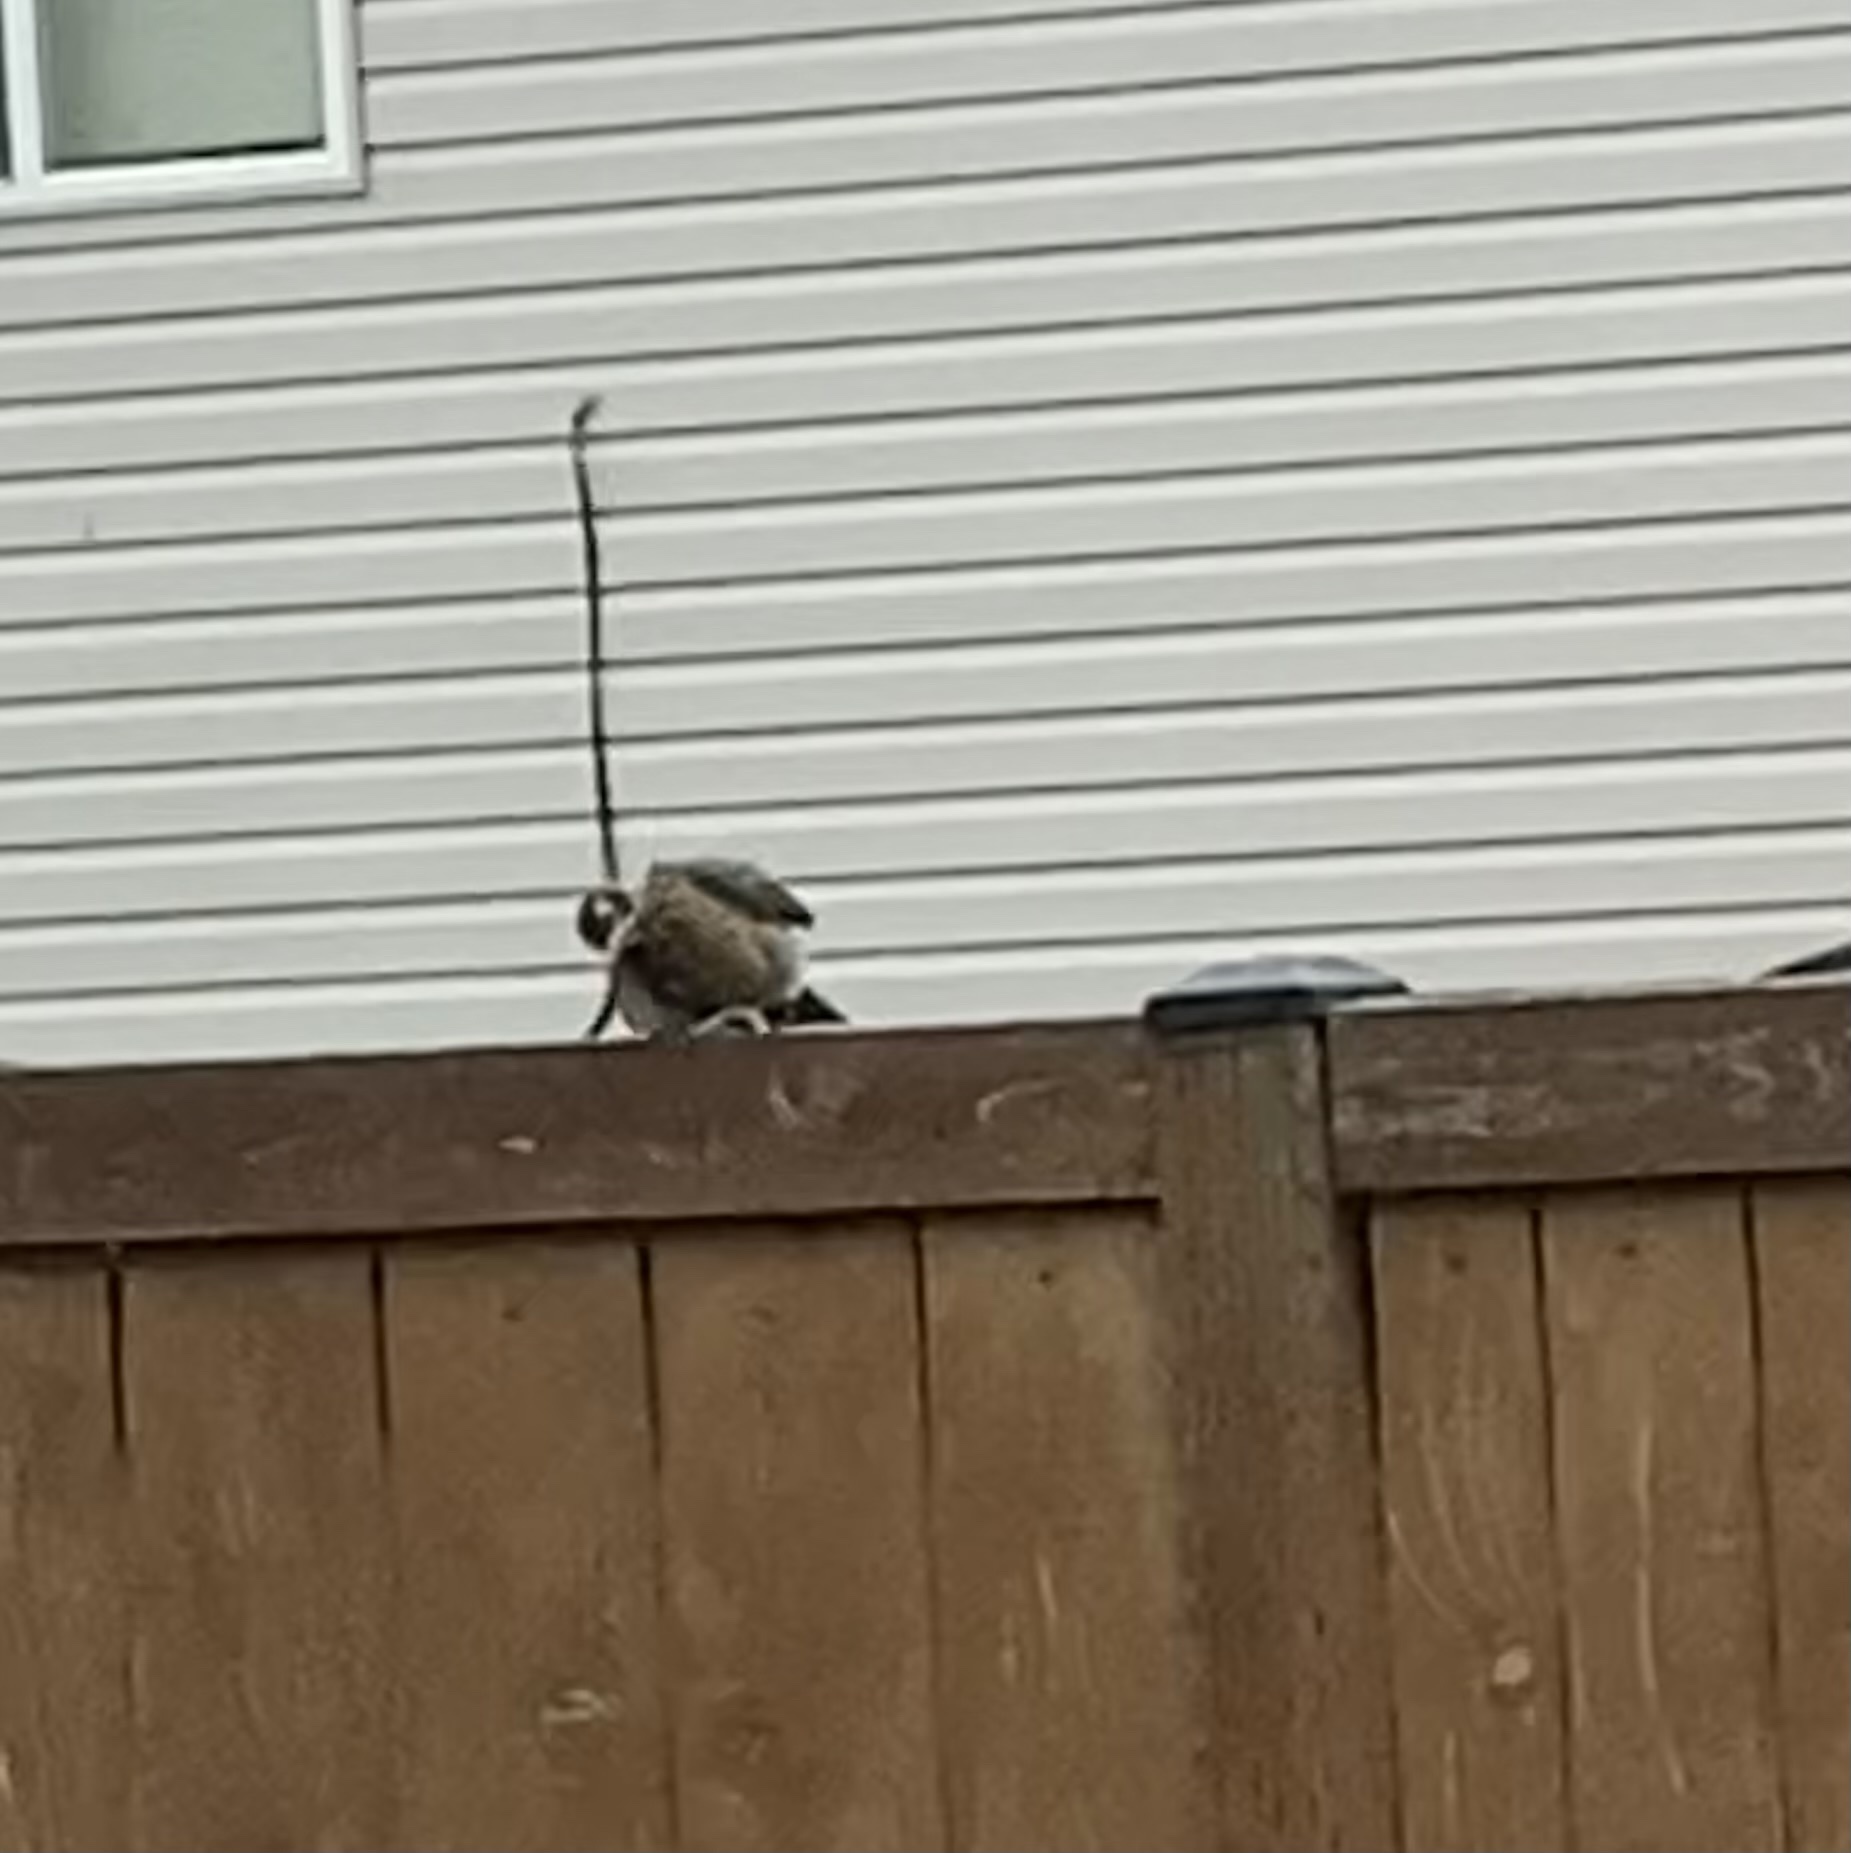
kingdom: Animalia
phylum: Chordata
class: Aves
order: Passeriformes
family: Turdidae
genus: Turdus
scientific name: Turdus migratorius
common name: American robin
